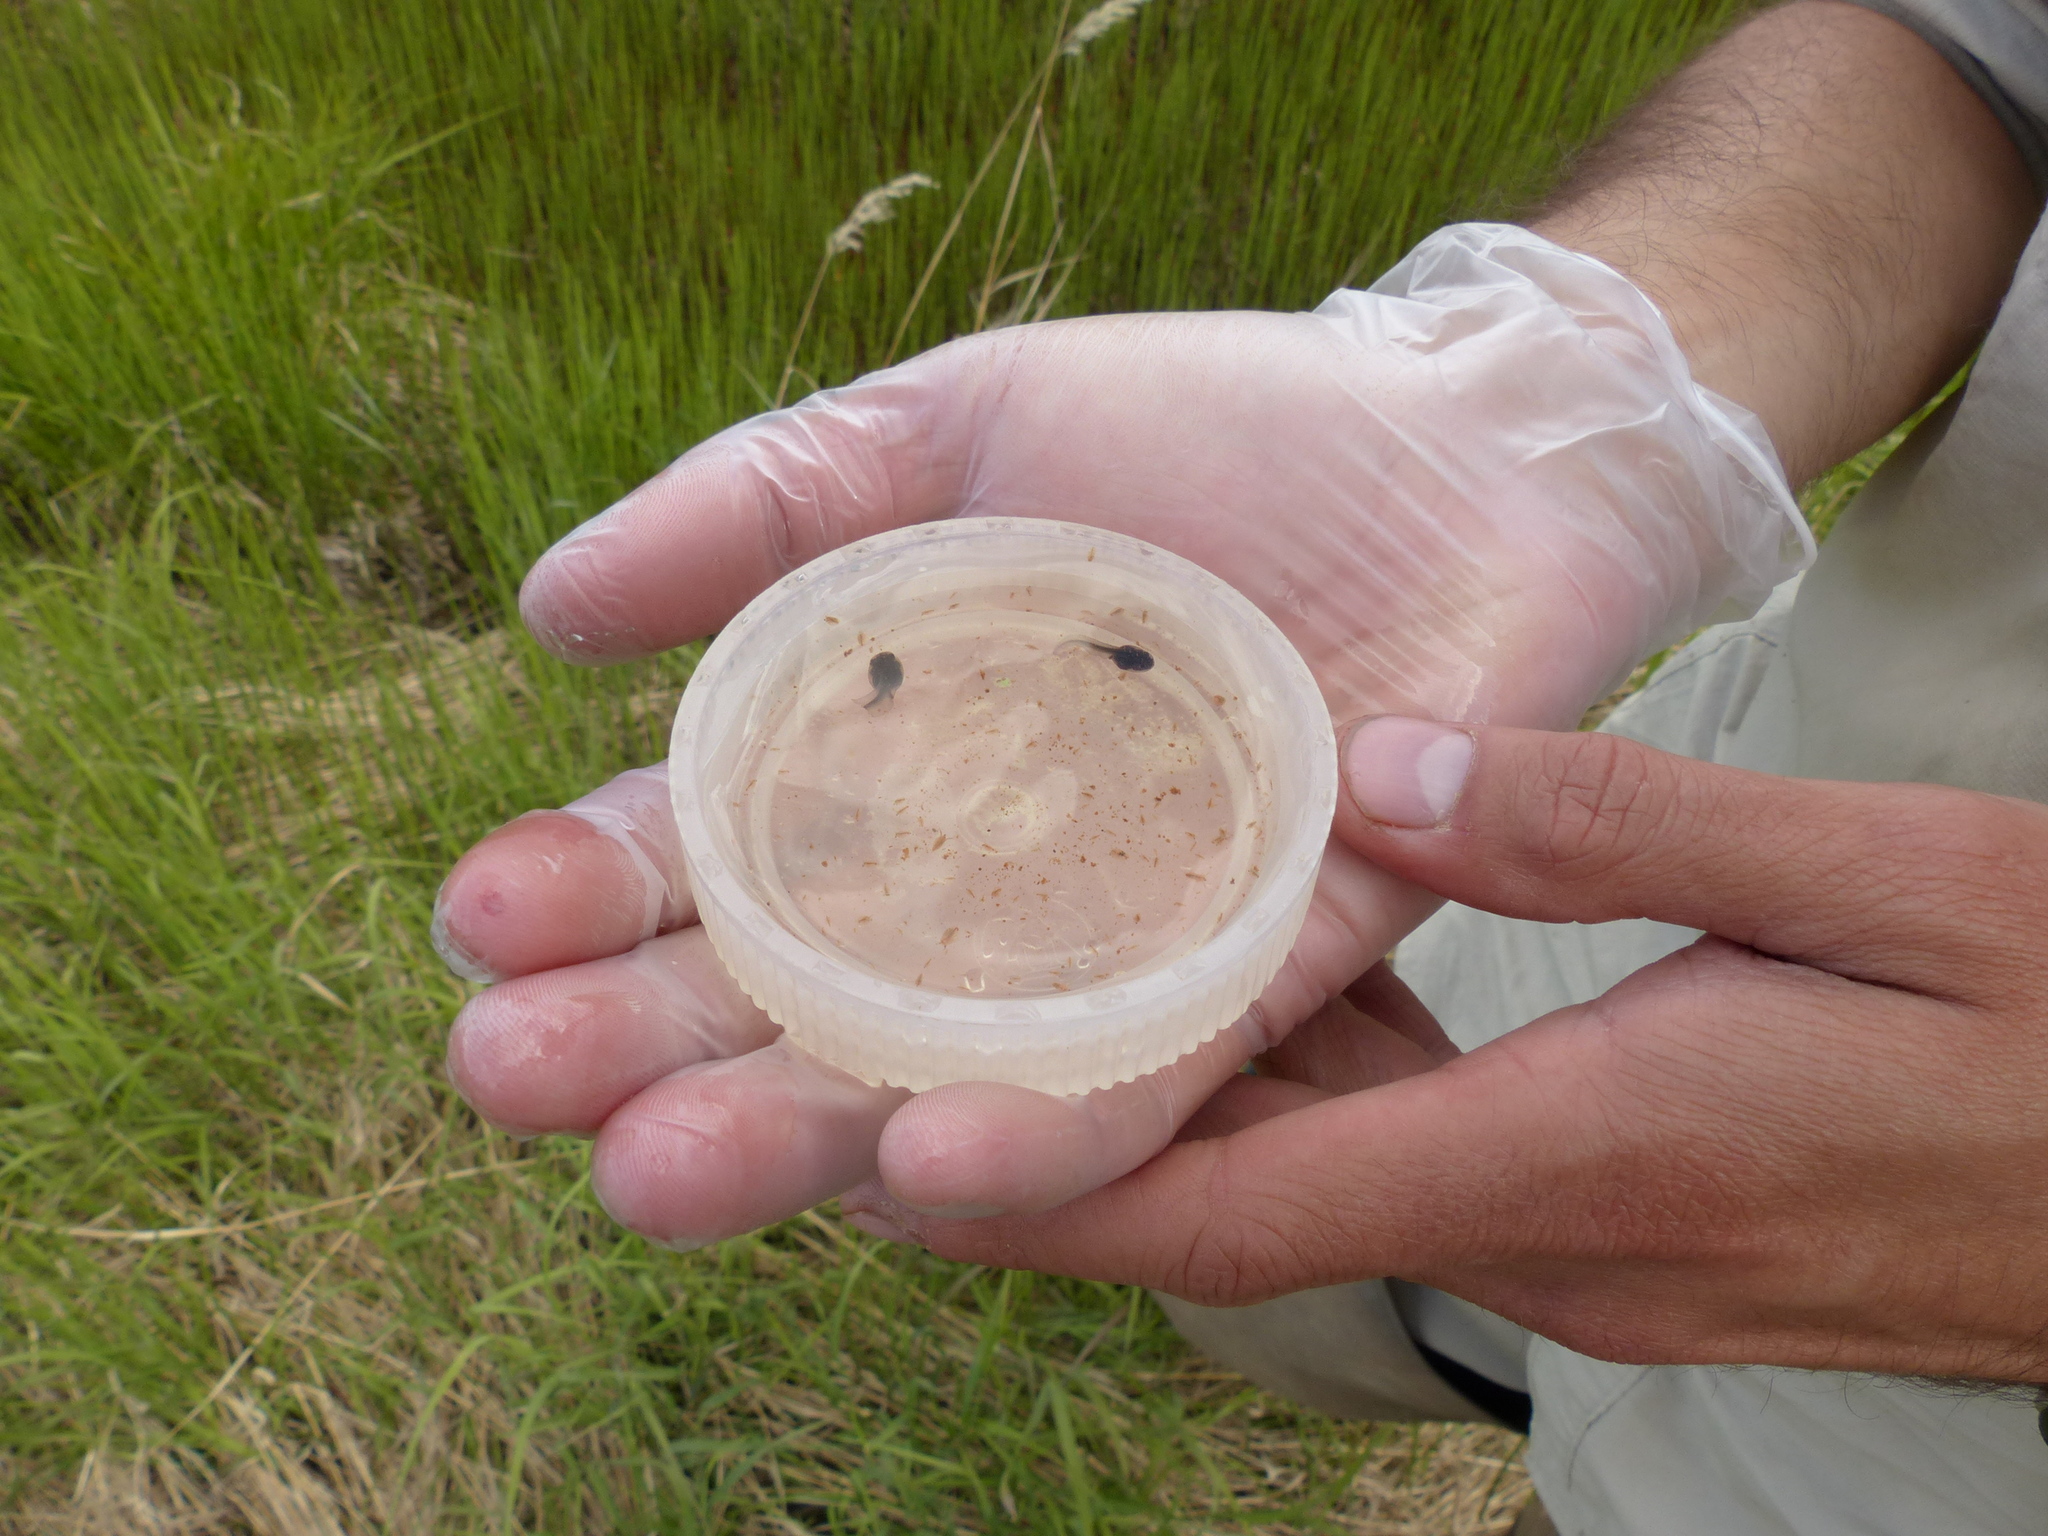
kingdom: Animalia
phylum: Chordata
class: Amphibia
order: Anura
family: Ranidae
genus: Lithobates
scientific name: Lithobates sylvaticus
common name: Wood frog
